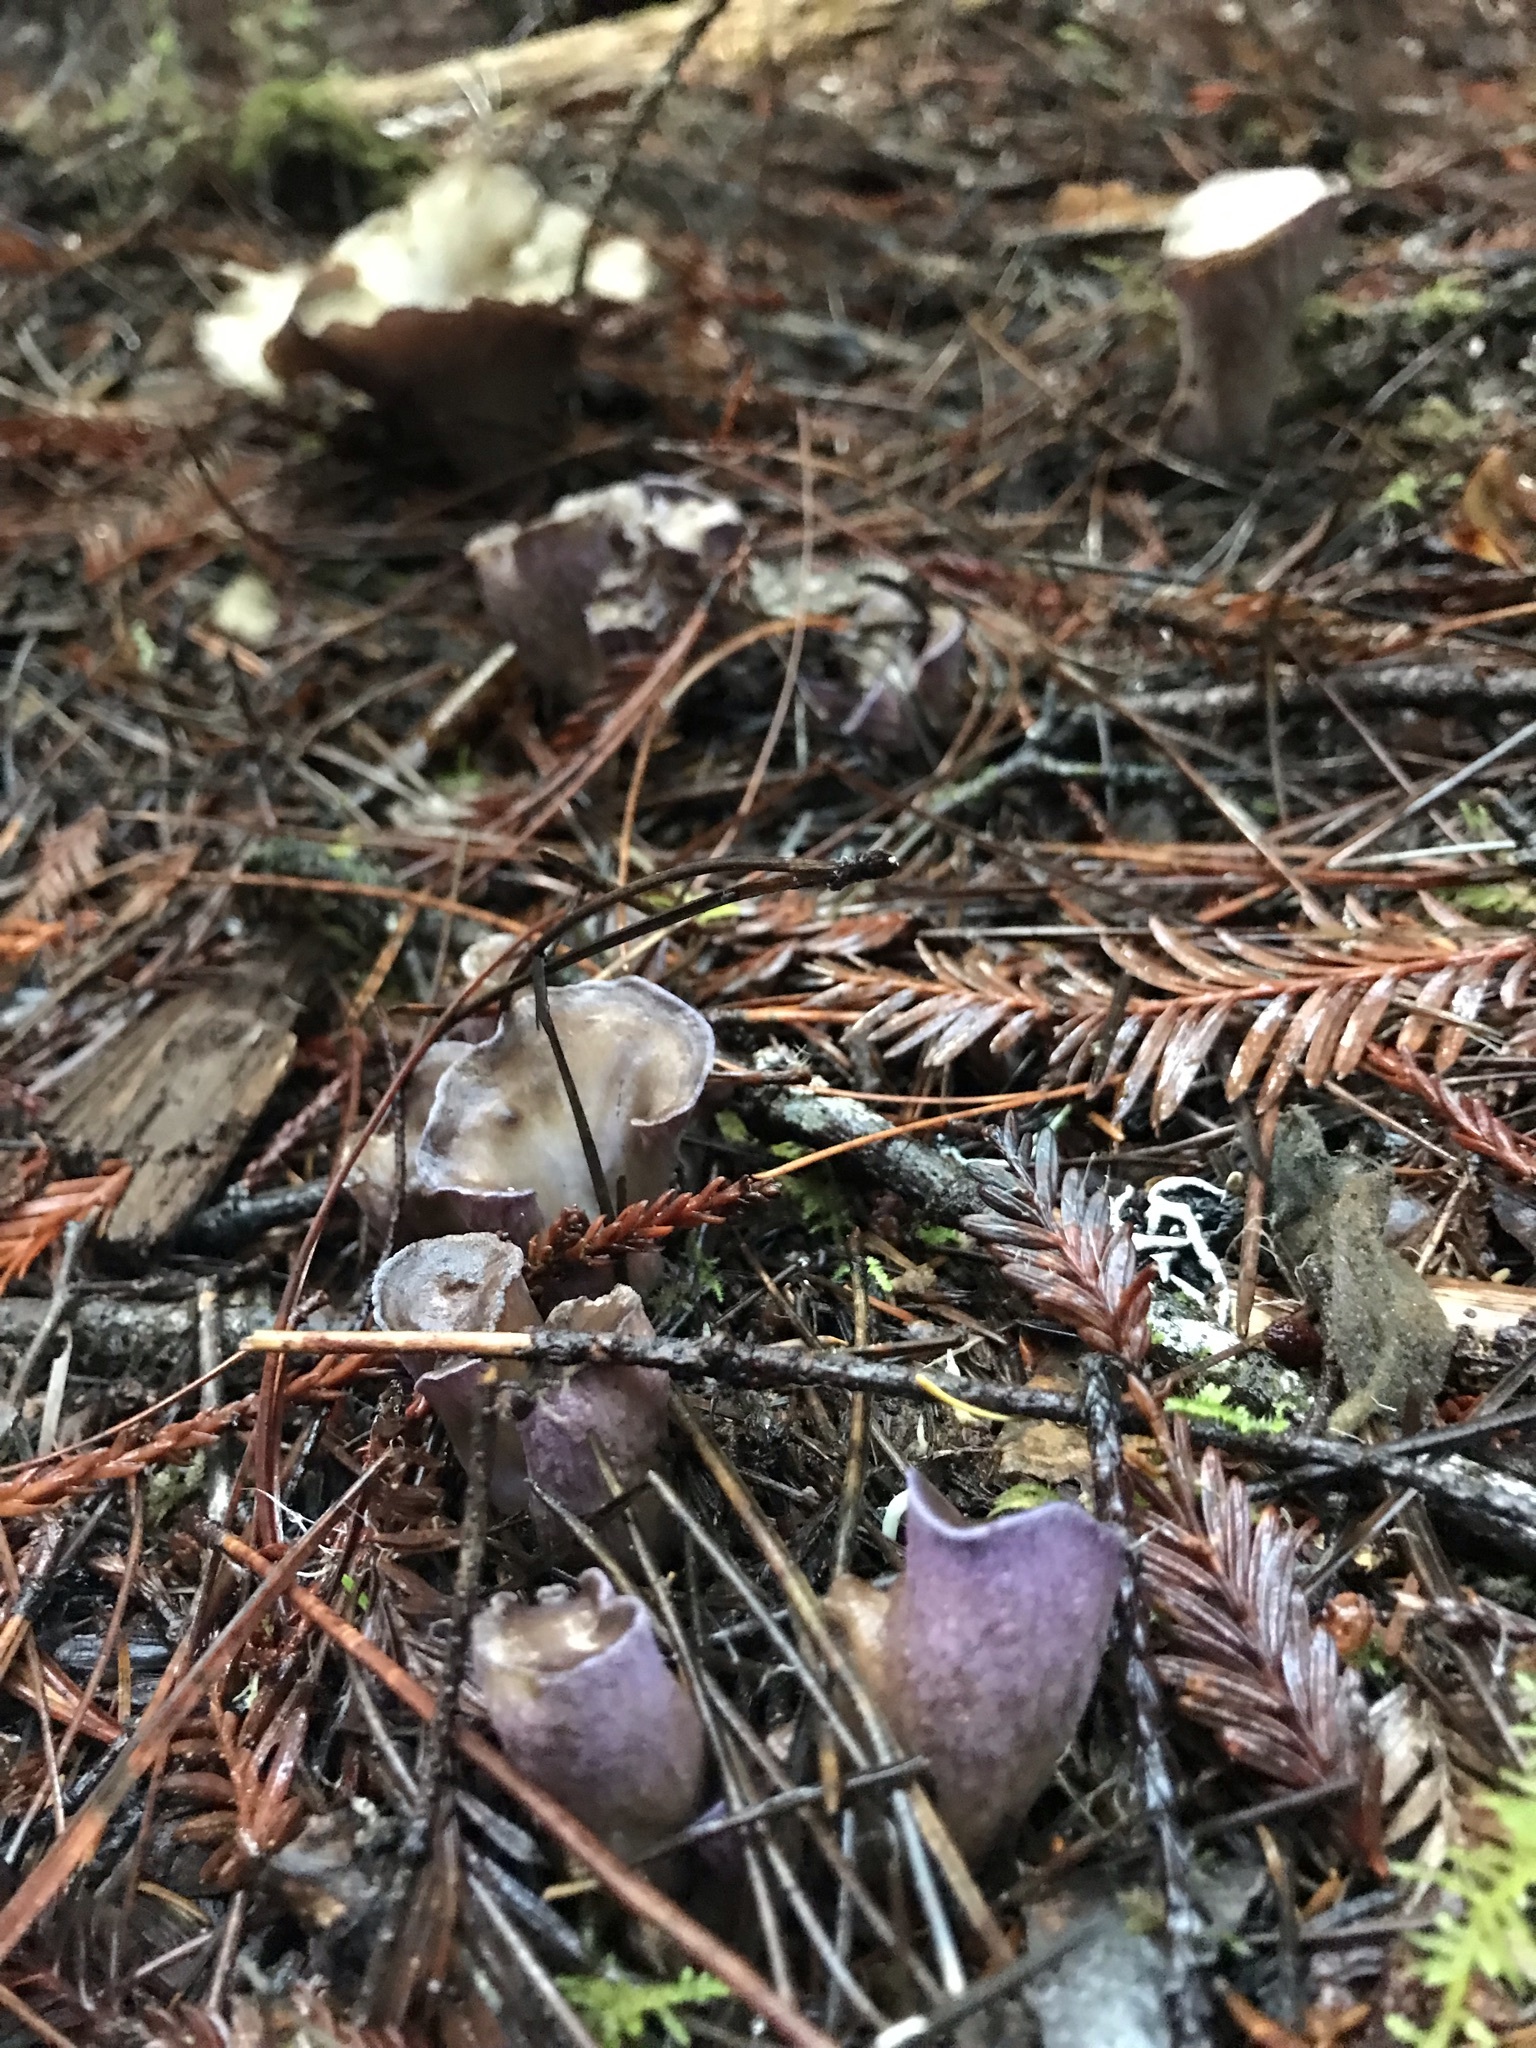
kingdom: Fungi
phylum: Basidiomycota
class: Agaricomycetes
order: Gomphales
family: Gomphaceae
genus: Gomphus
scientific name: Gomphus clavatus
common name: Pig's ear
